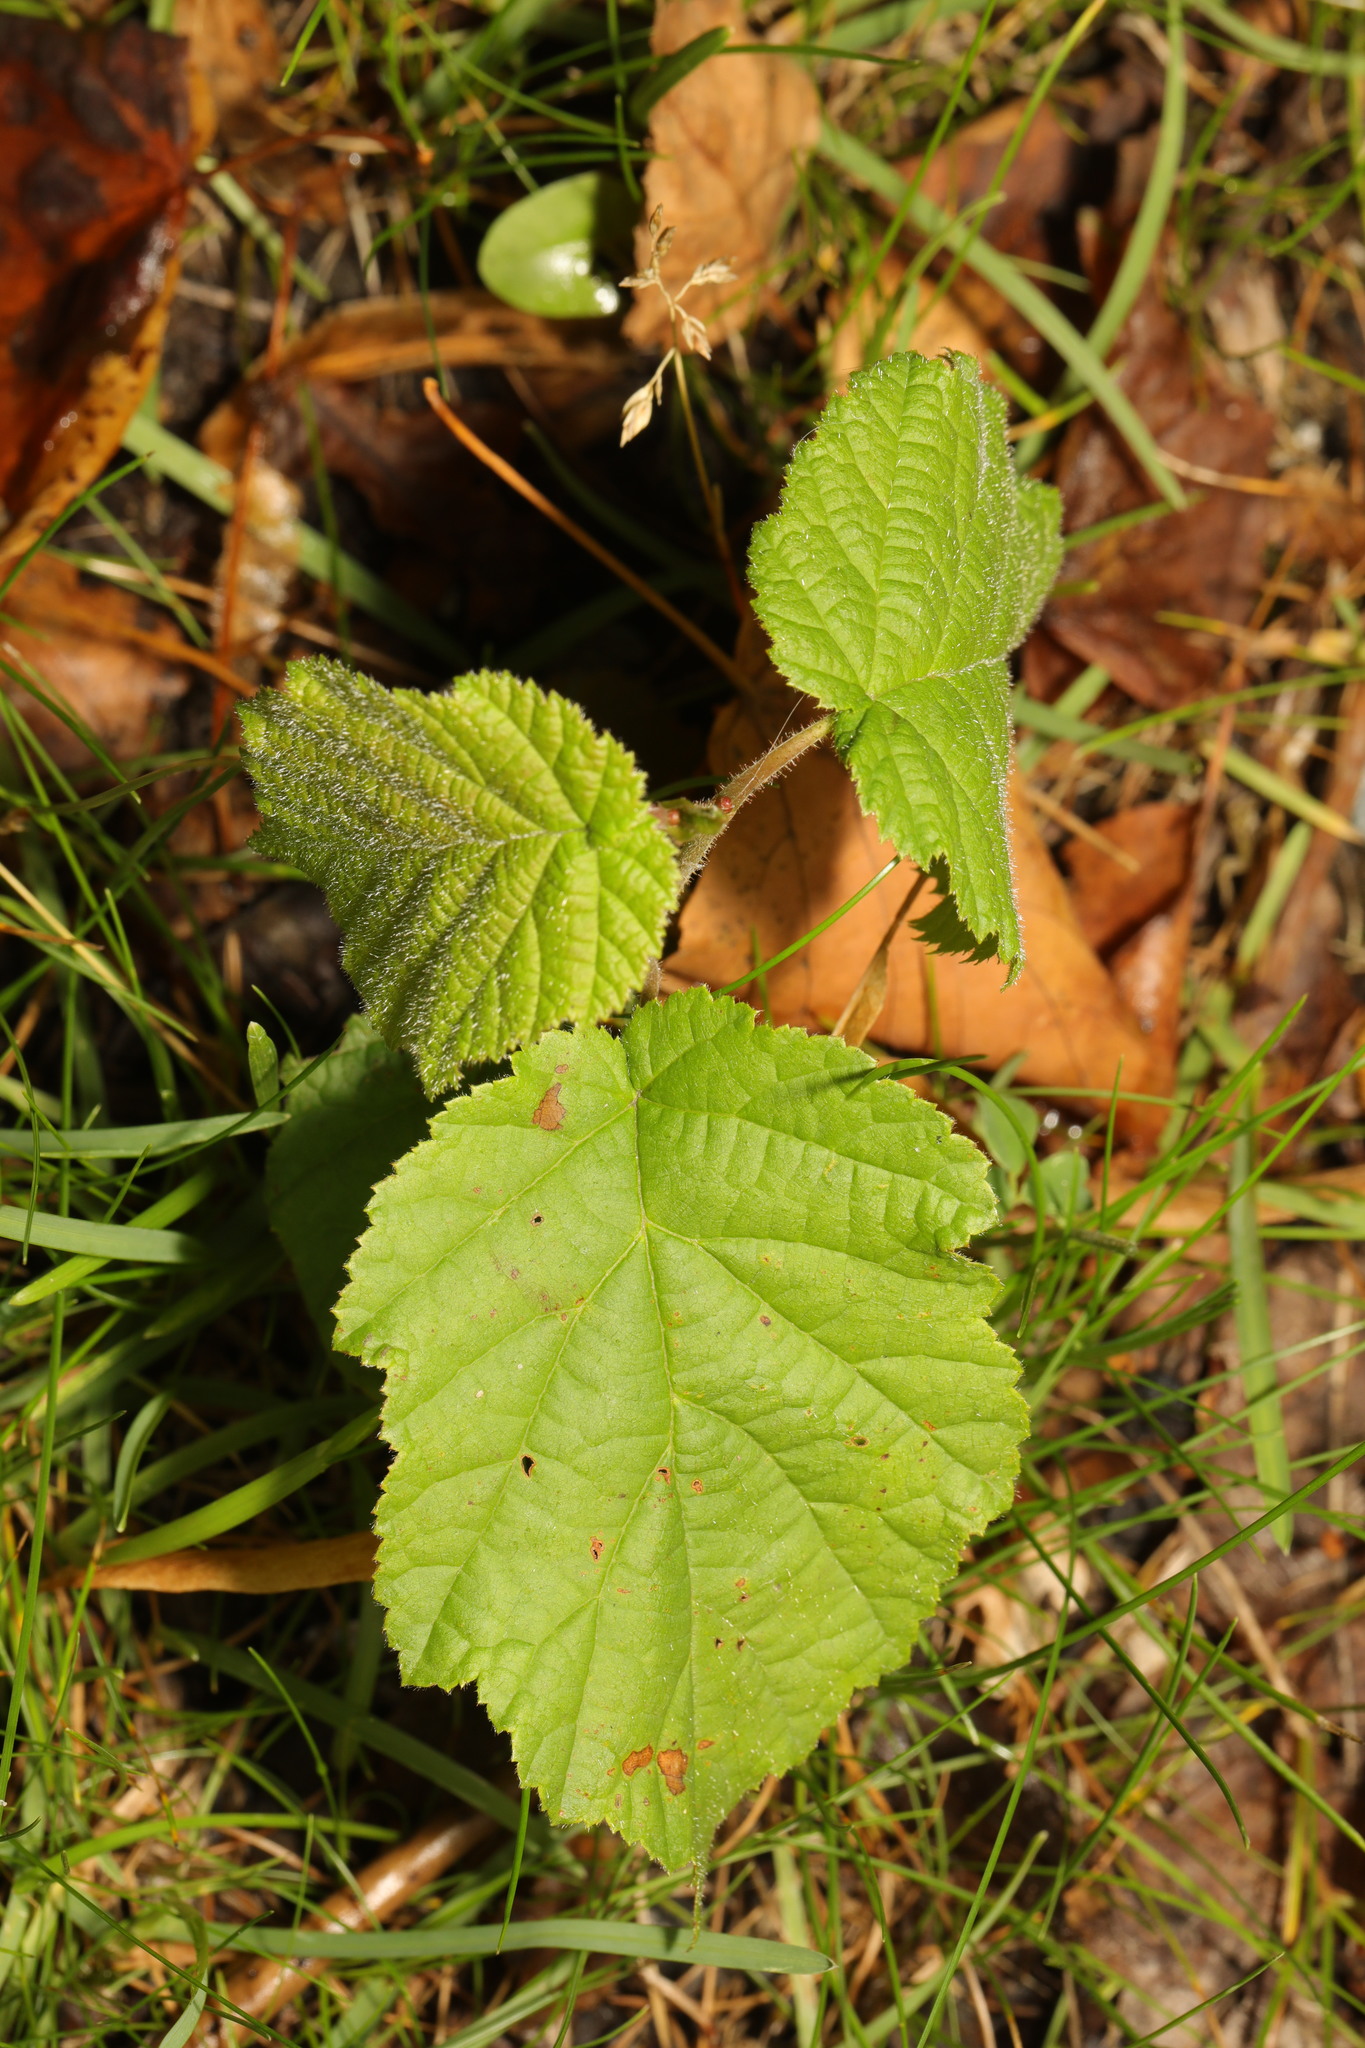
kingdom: Plantae
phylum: Tracheophyta
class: Magnoliopsida
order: Fagales
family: Betulaceae
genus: Corylus
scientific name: Corylus avellana
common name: European hazel
